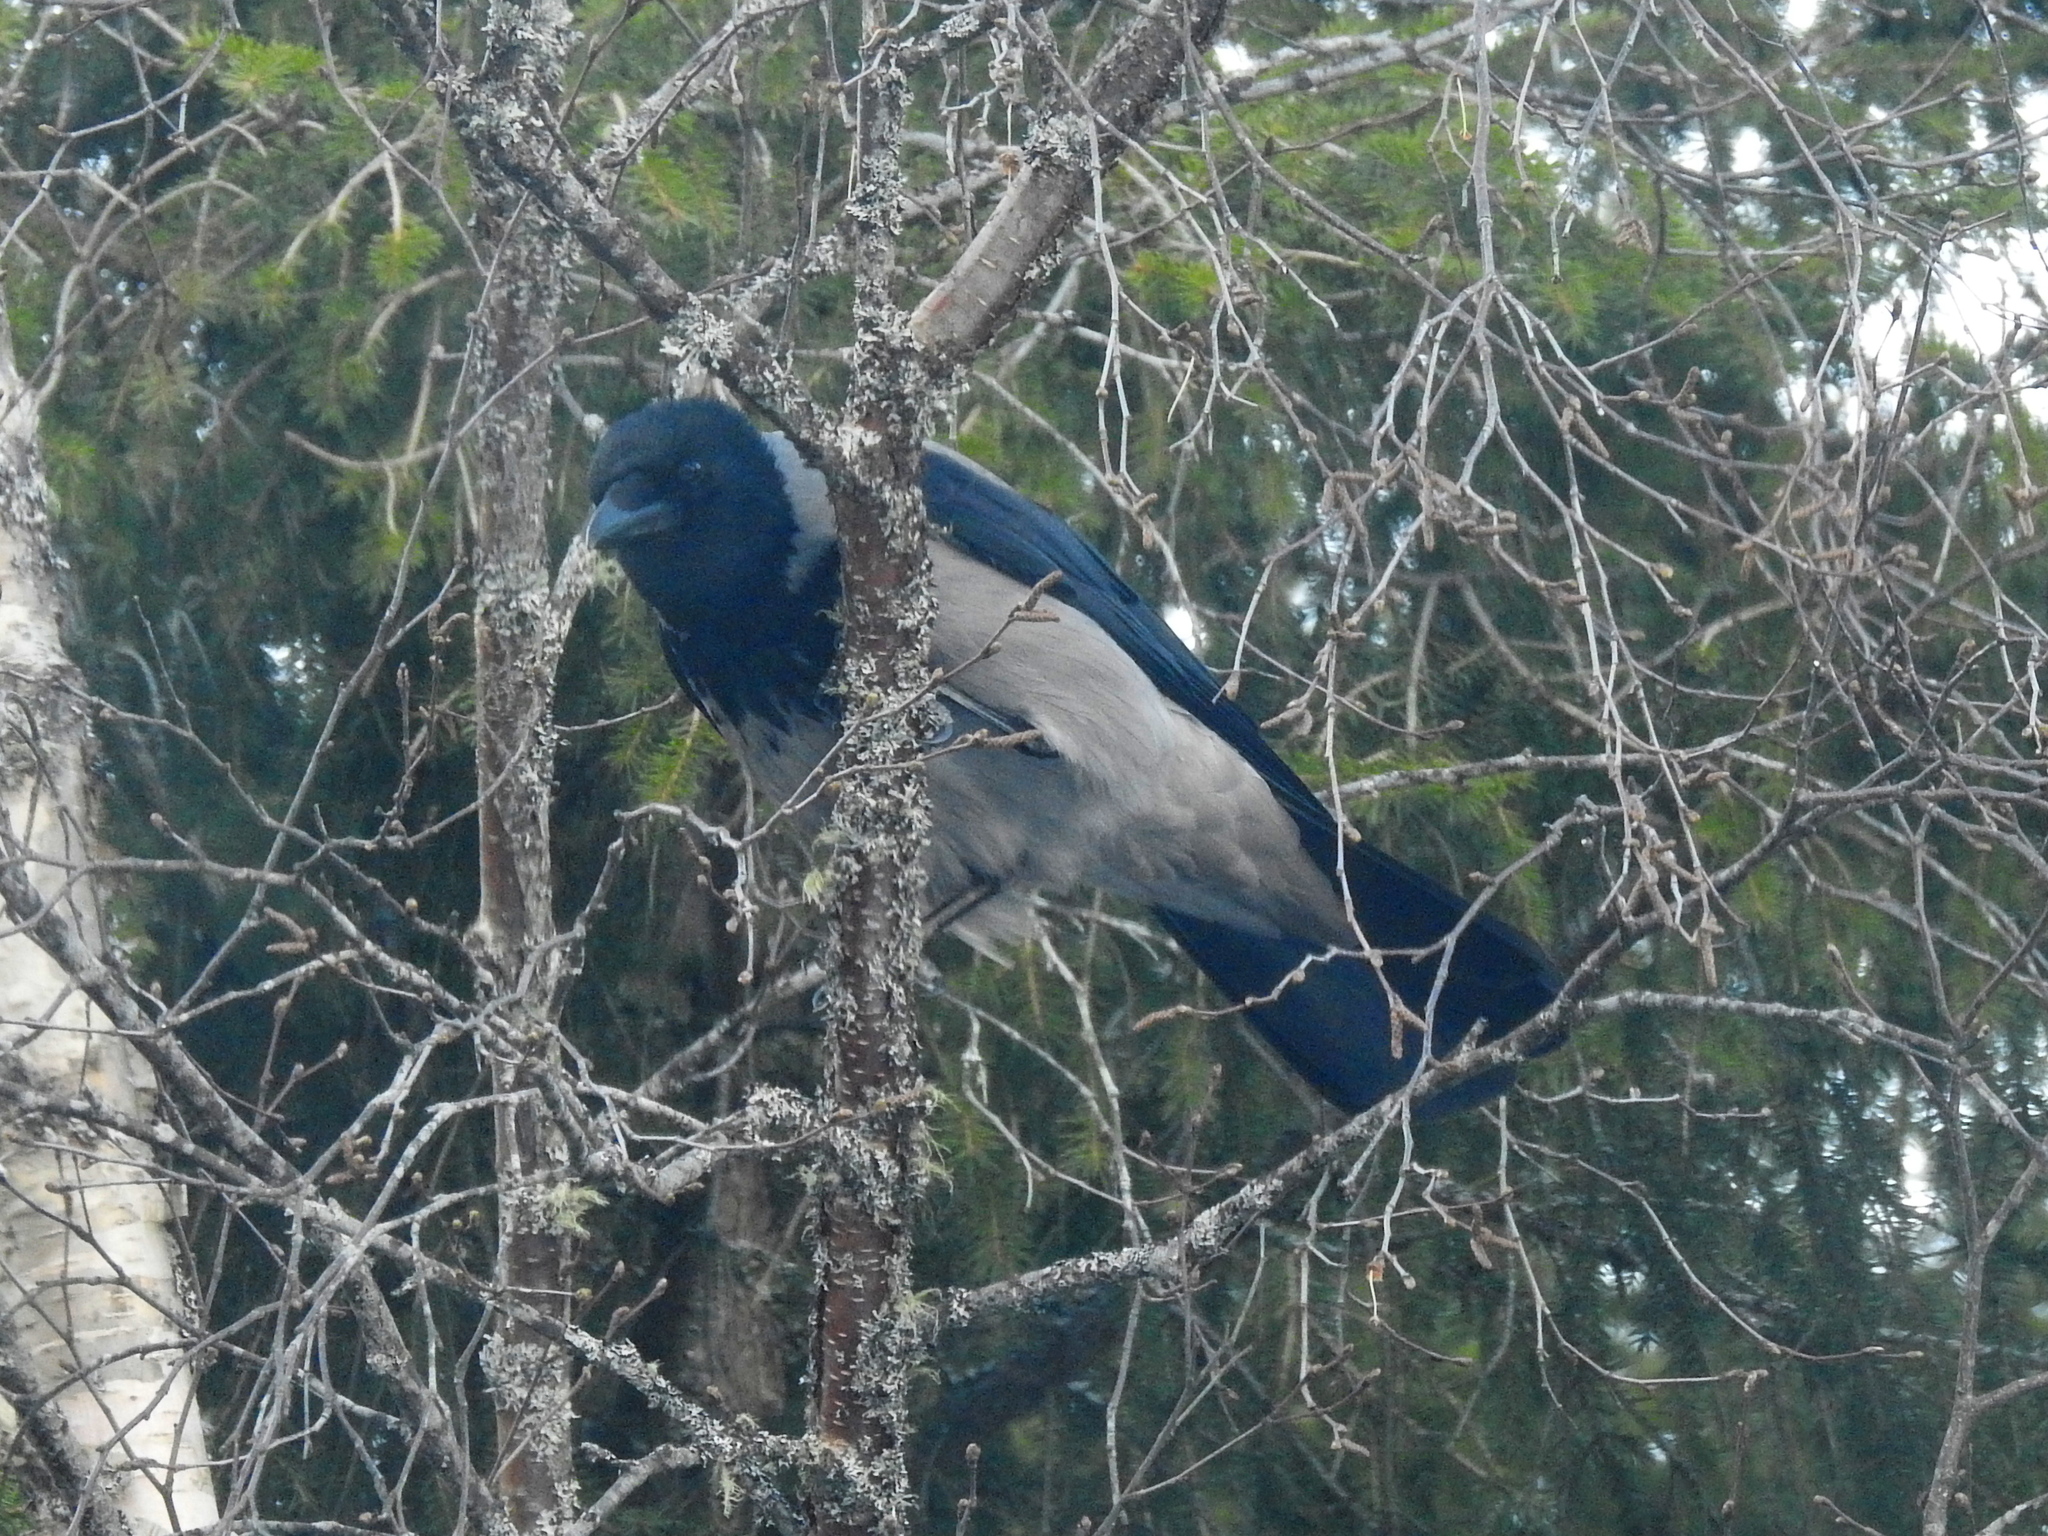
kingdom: Animalia
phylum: Chordata
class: Aves
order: Passeriformes
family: Corvidae
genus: Corvus
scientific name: Corvus cornix
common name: Hooded crow
